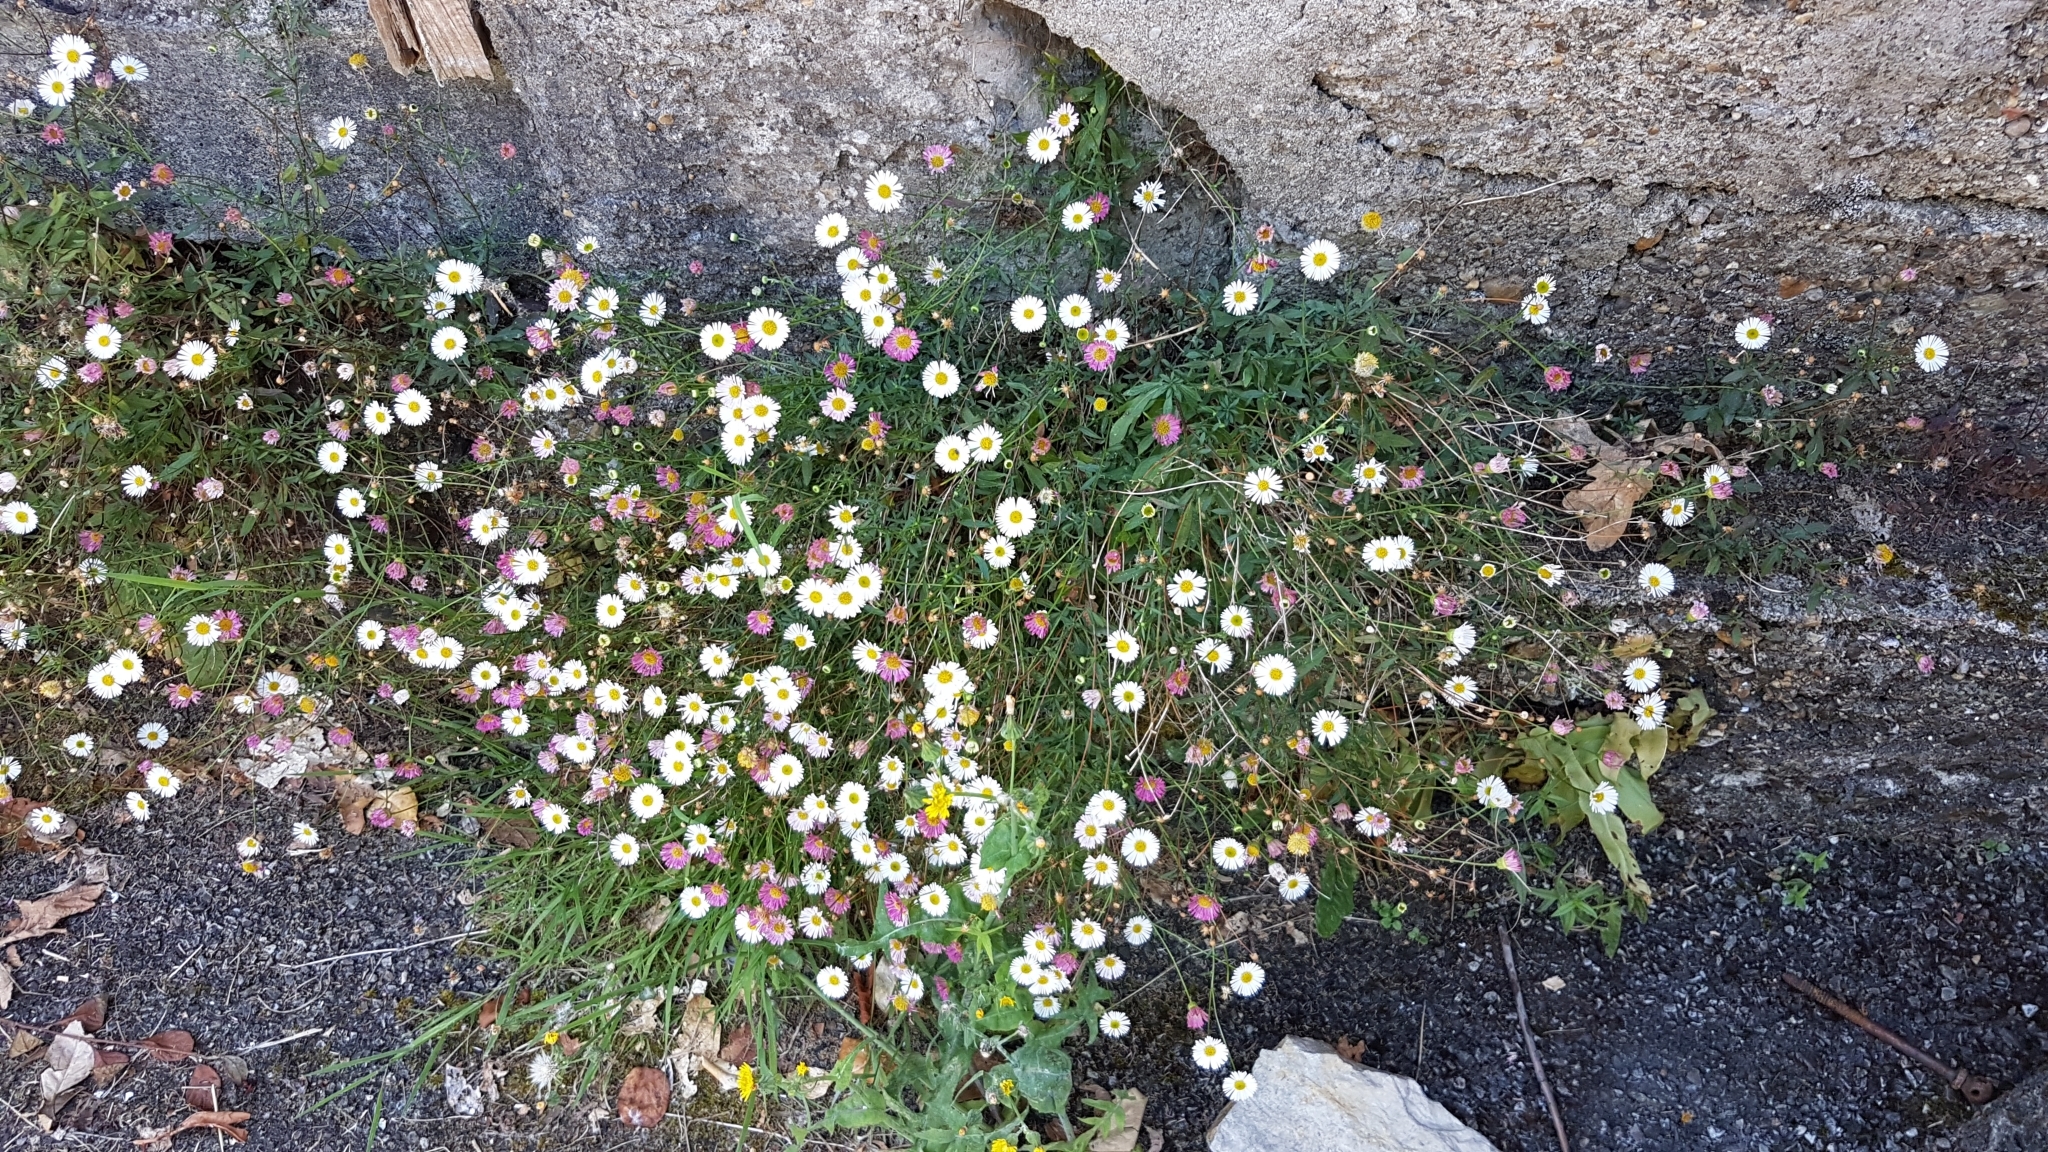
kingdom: Plantae
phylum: Tracheophyta
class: Magnoliopsida
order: Asterales
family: Asteraceae
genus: Erigeron
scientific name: Erigeron karvinskianus
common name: Mexican fleabane
